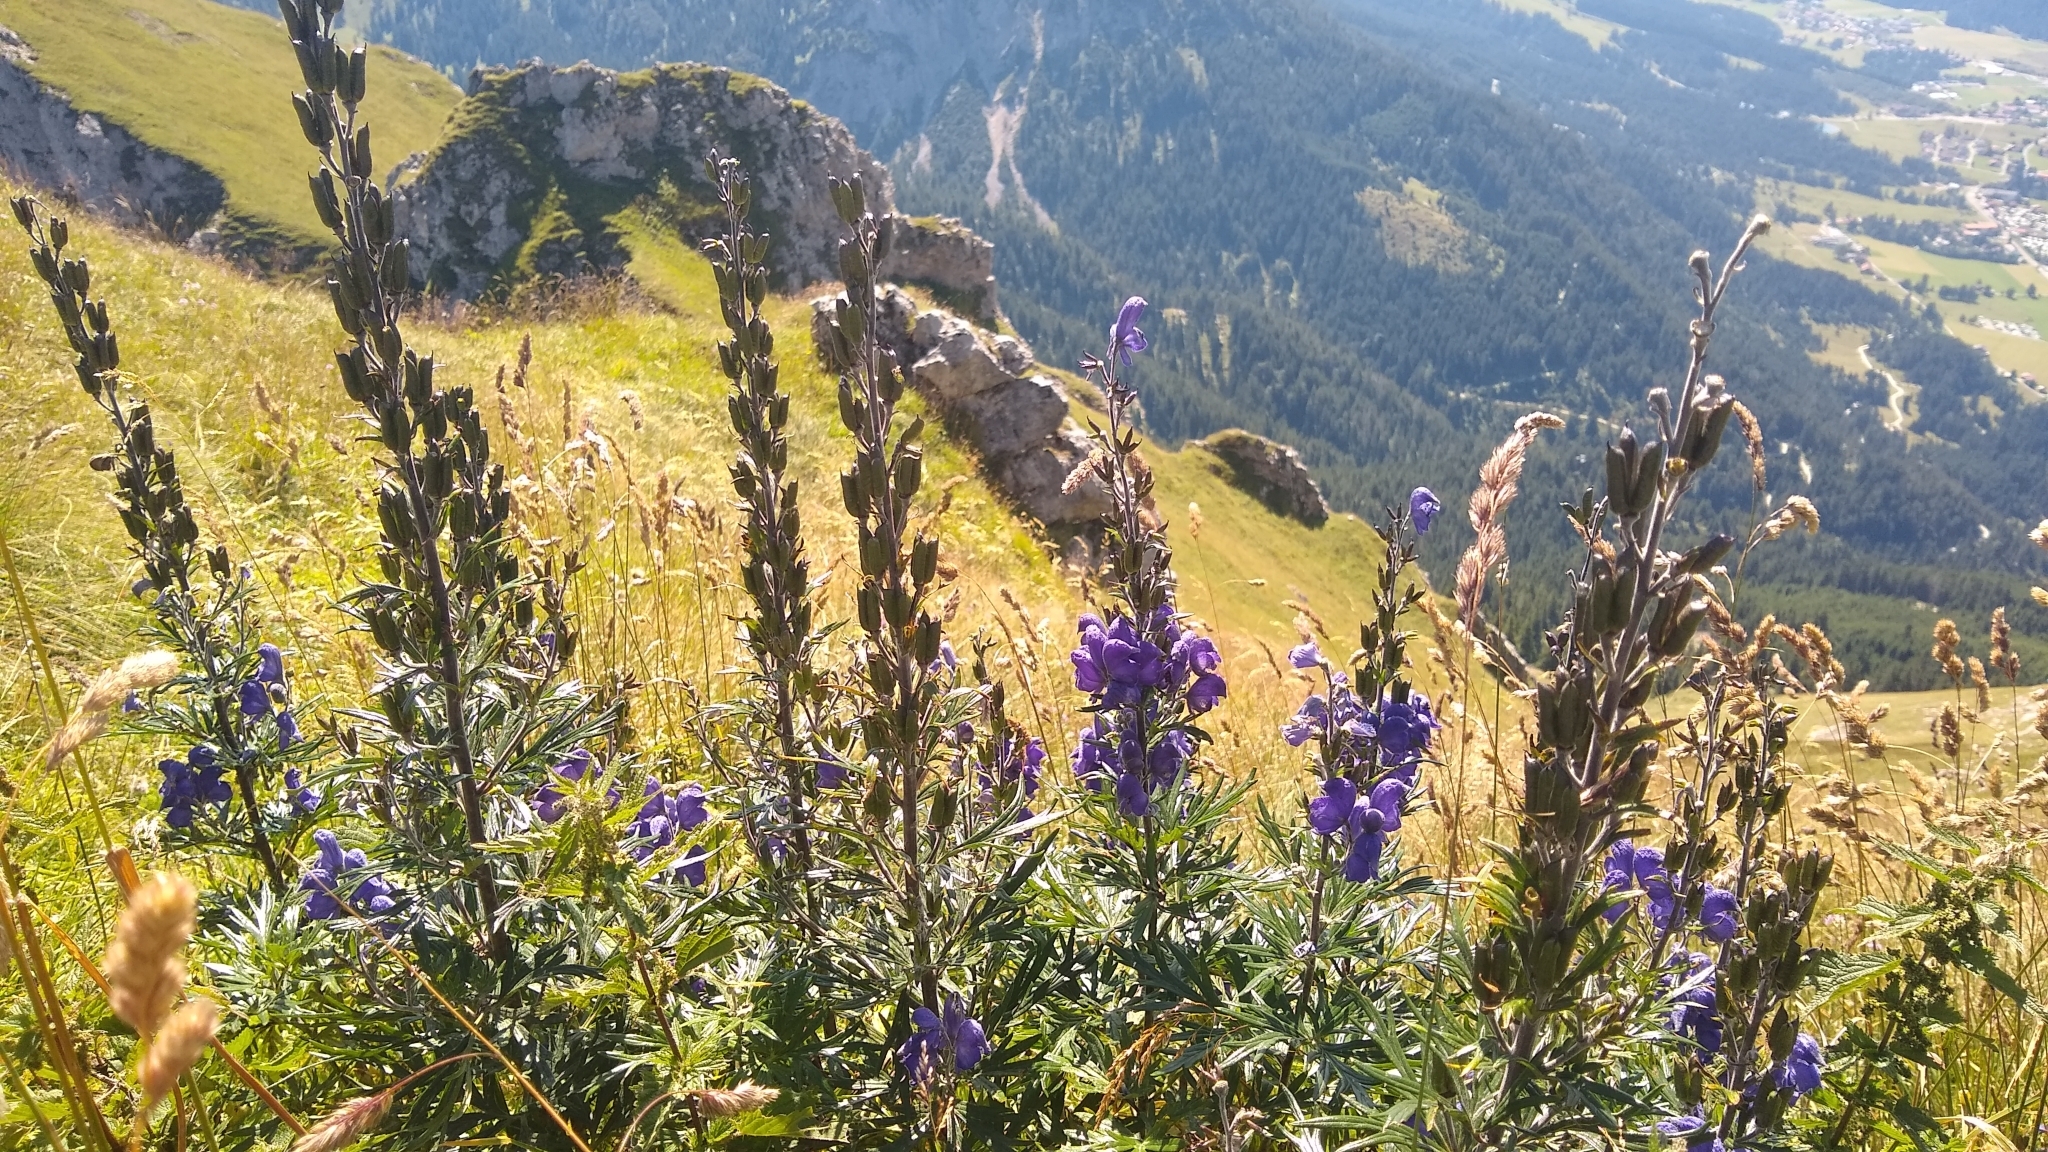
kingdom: Plantae
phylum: Tracheophyta
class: Magnoliopsida
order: Ranunculales
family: Ranunculaceae
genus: Aconitum
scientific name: Aconitum napellus
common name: Garden monkshood
